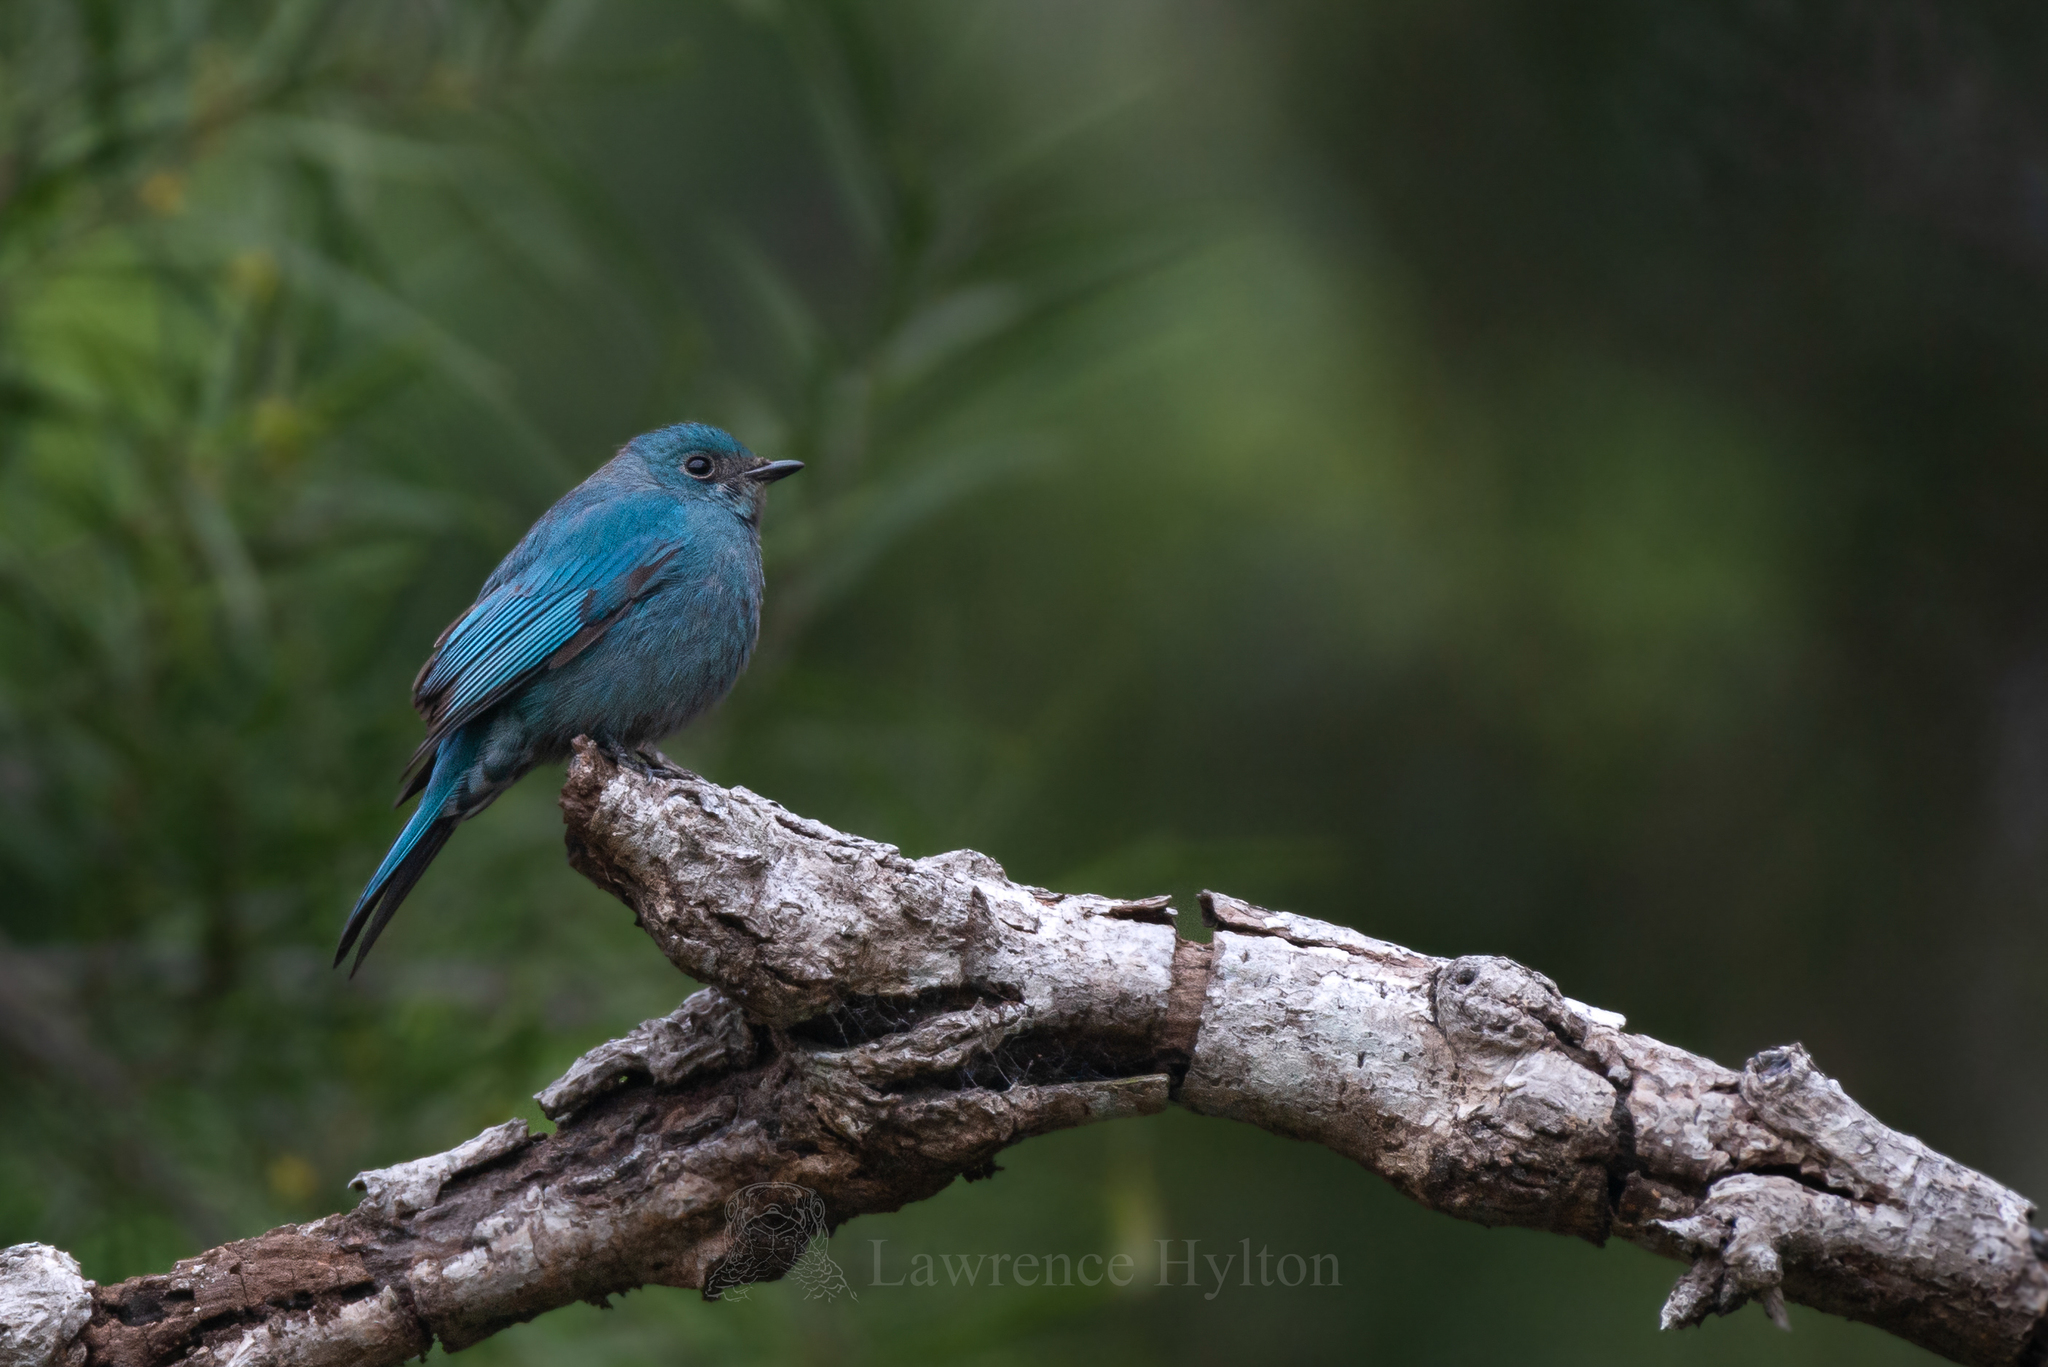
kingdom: Animalia
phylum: Chordata
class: Aves
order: Passeriformes
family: Muscicapidae
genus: Eumyias
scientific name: Eumyias thalassinus
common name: Verditer flycatcher
